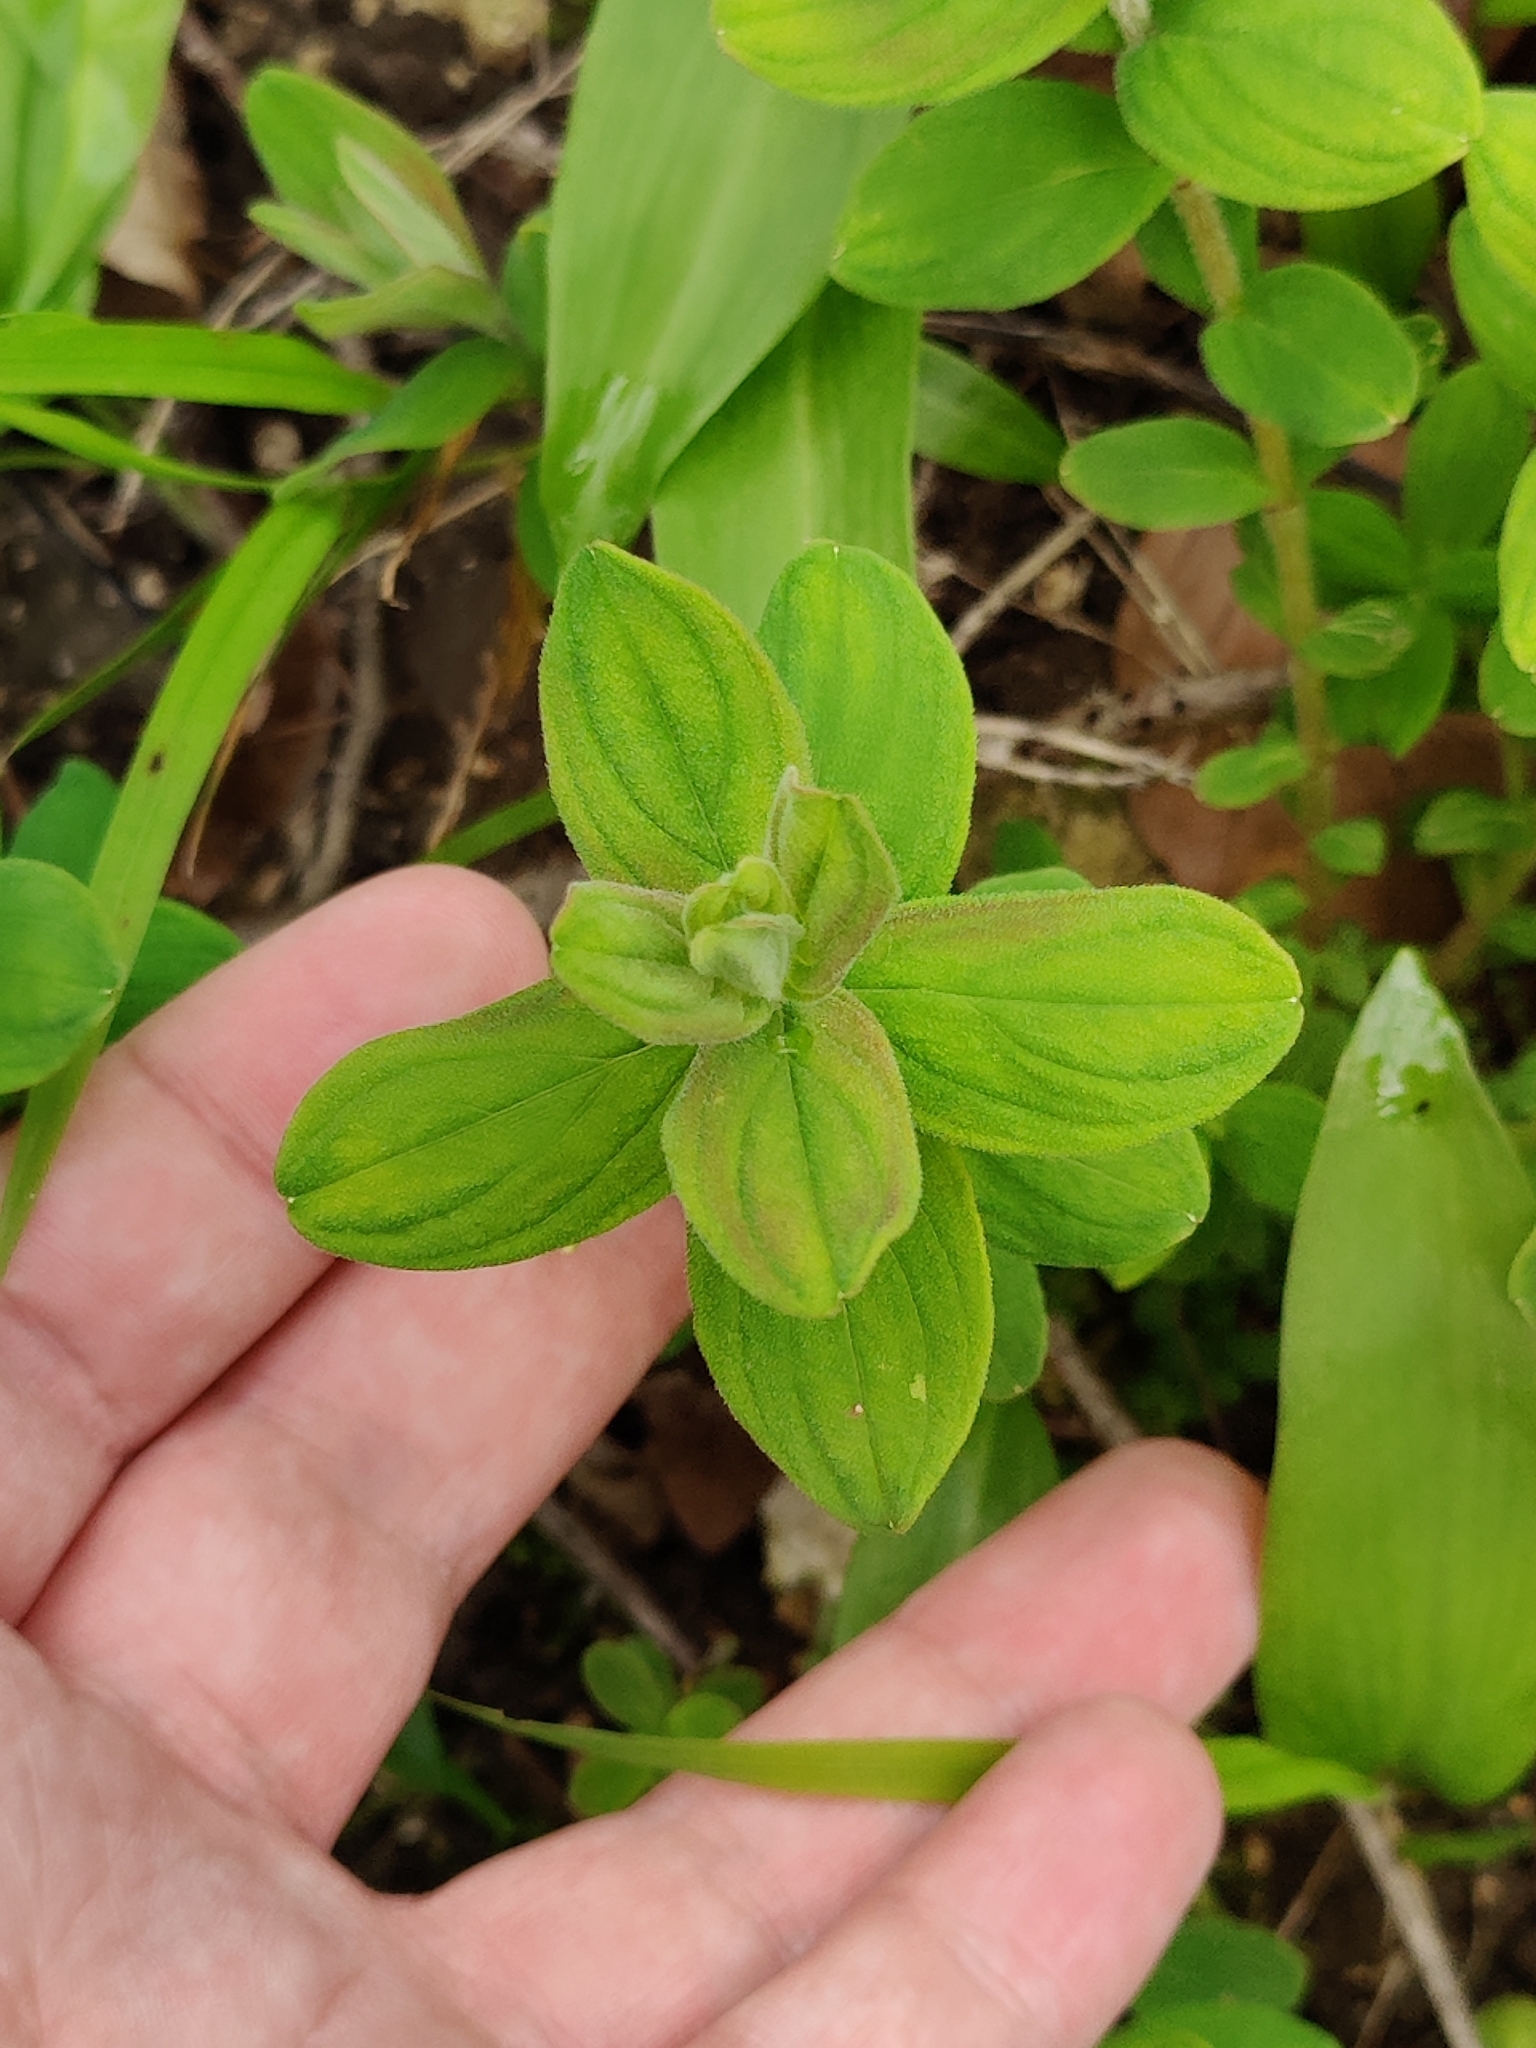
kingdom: Plantae
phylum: Tracheophyta
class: Magnoliopsida
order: Malpighiales
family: Hypericaceae
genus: Hypericum
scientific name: Hypericum hirsutum
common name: Hairy st. john's-wort
